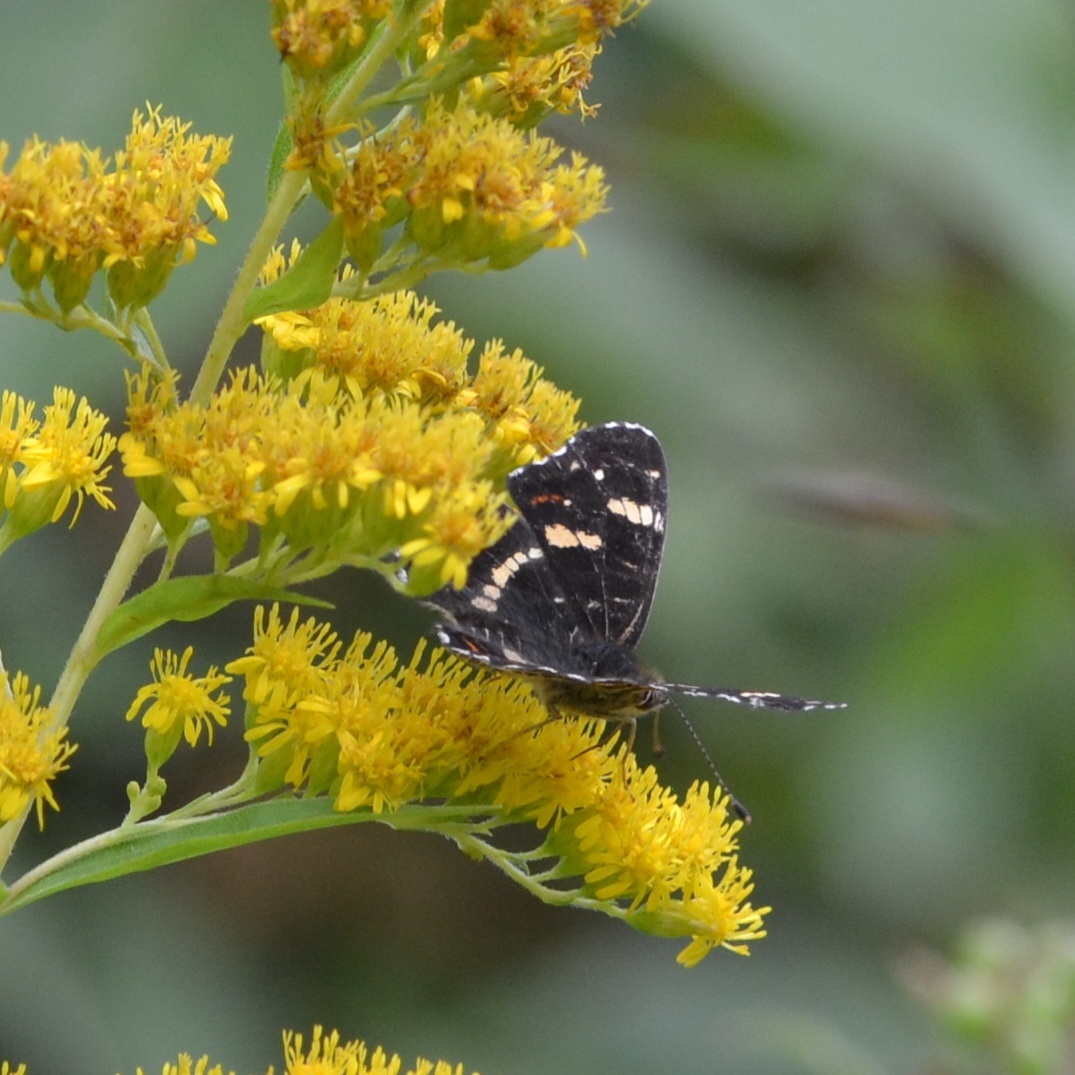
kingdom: Animalia
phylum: Arthropoda
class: Insecta
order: Lepidoptera
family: Nymphalidae
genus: Araschnia
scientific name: Araschnia levana
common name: Map butterfly
